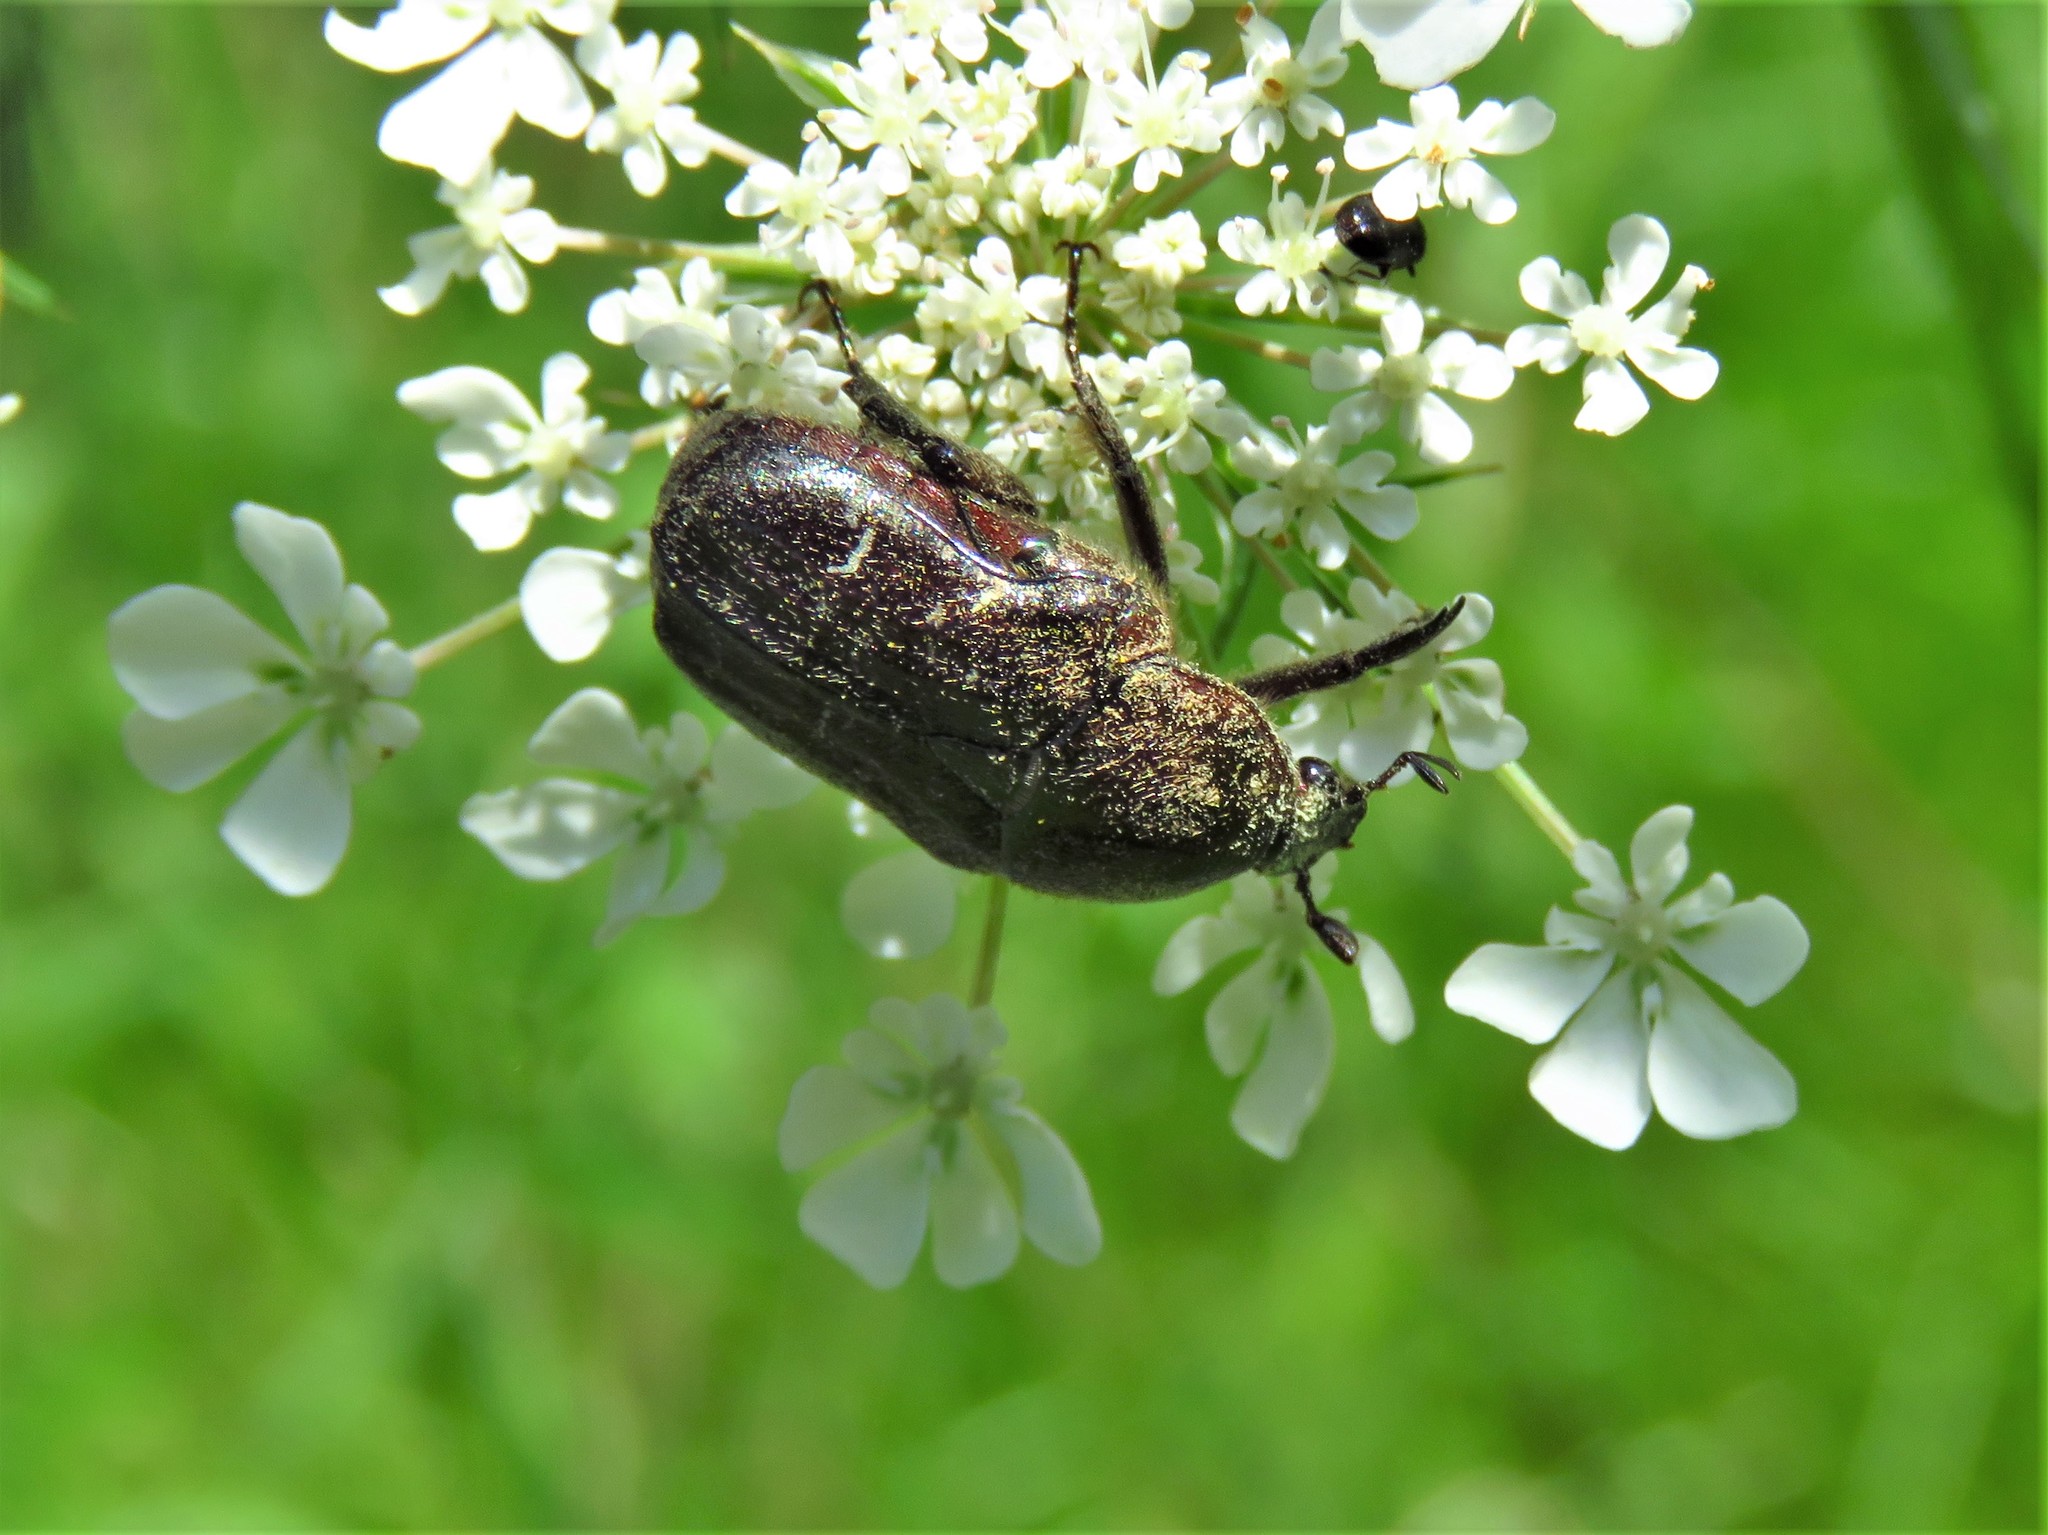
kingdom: Animalia
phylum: Arthropoda
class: Insecta
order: Coleoptera
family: Scarabaeidae
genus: Euphoria
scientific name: Euphoria sepulcralis
